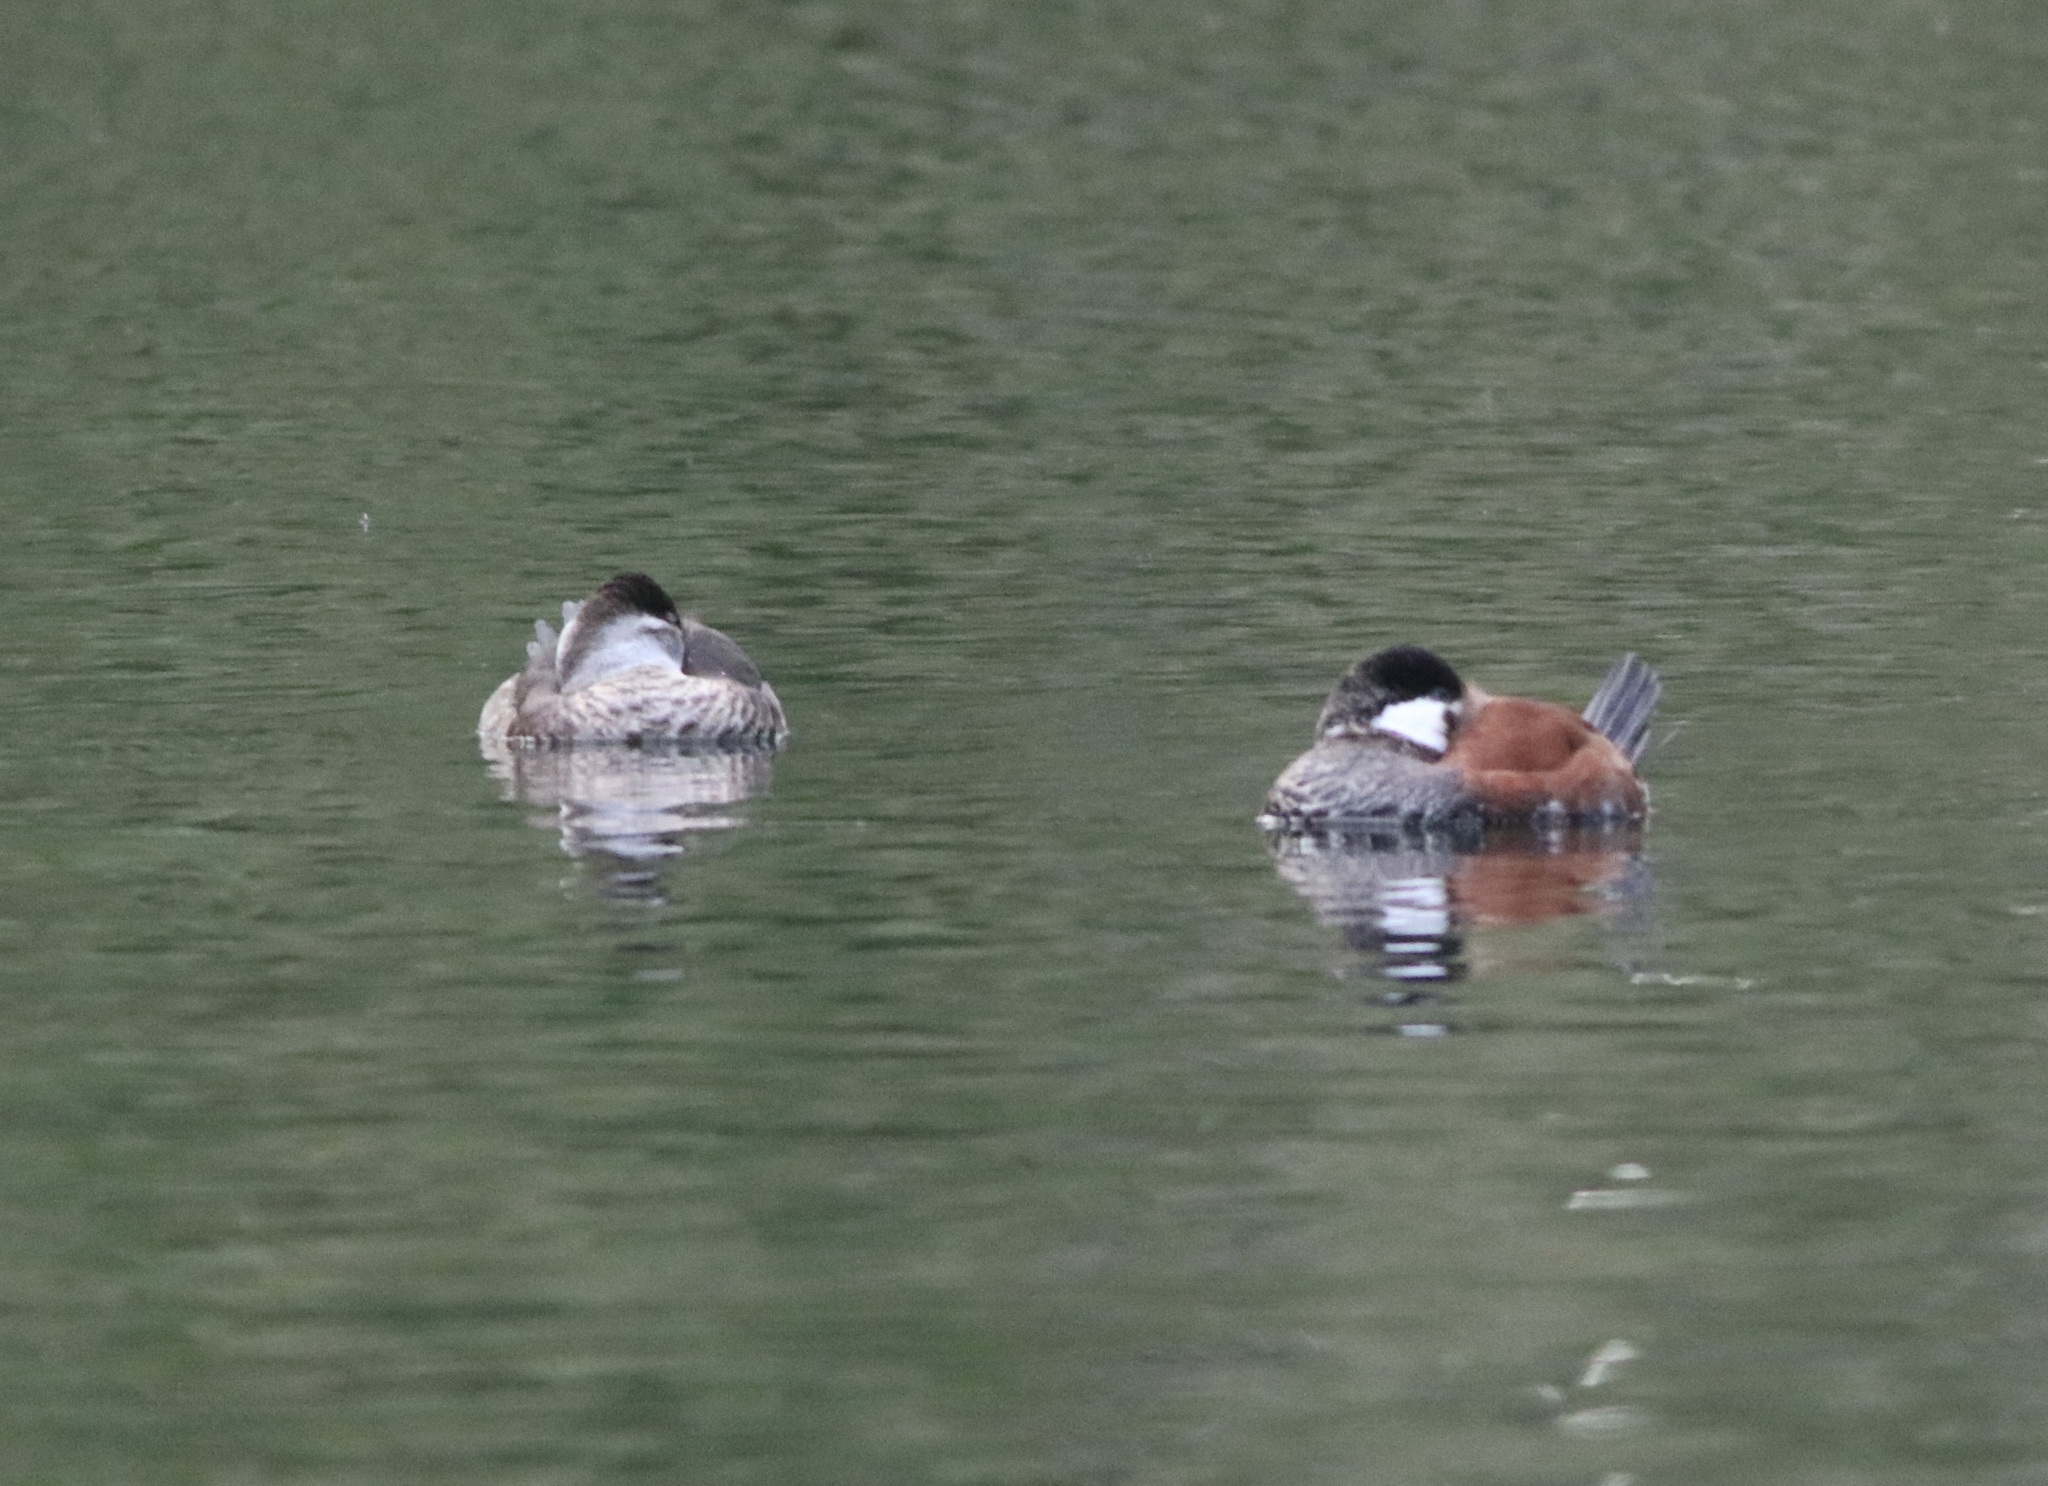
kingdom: Animalia
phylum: Chordata
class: Aves
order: Anseriformes
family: Anatidae
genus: Oxyura
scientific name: Oxyura jamaicensis
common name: Ruddy duck
